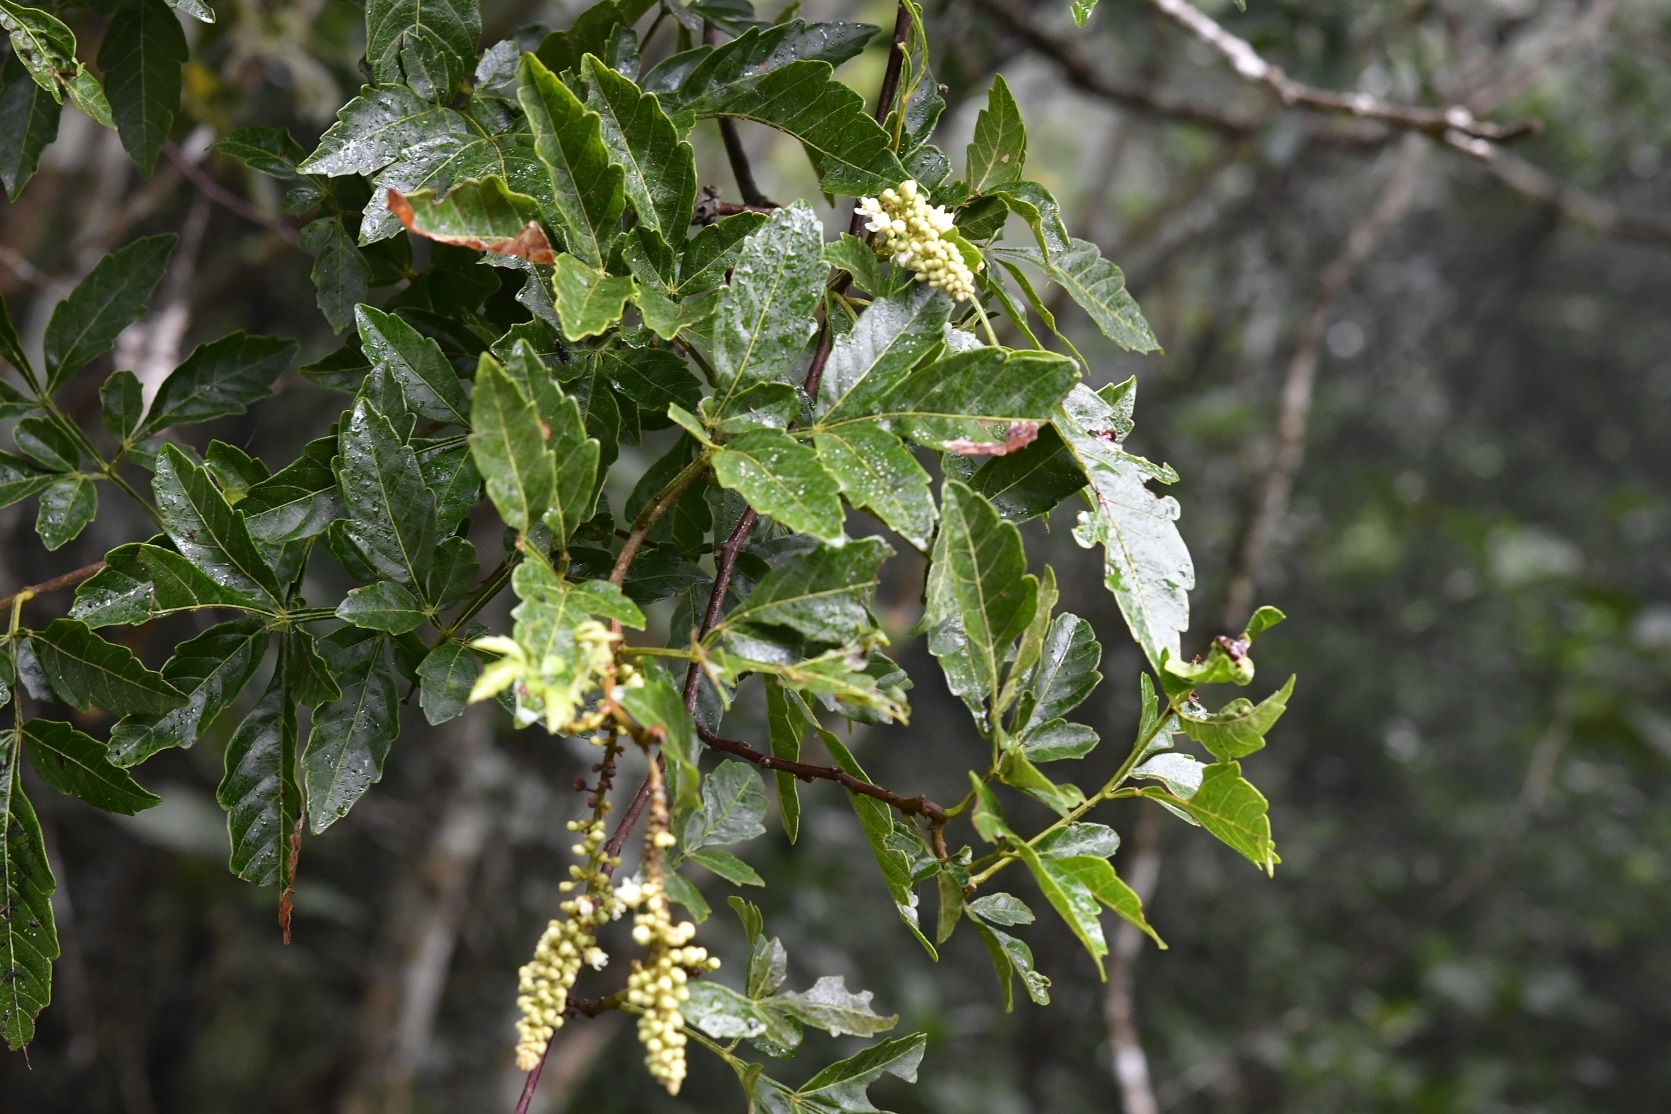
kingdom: Plantae
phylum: Tracheophyta
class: Magnoliopsida
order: Sapindales
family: Sapindaceae
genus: Paullinia
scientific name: Paullinia fuscescens
